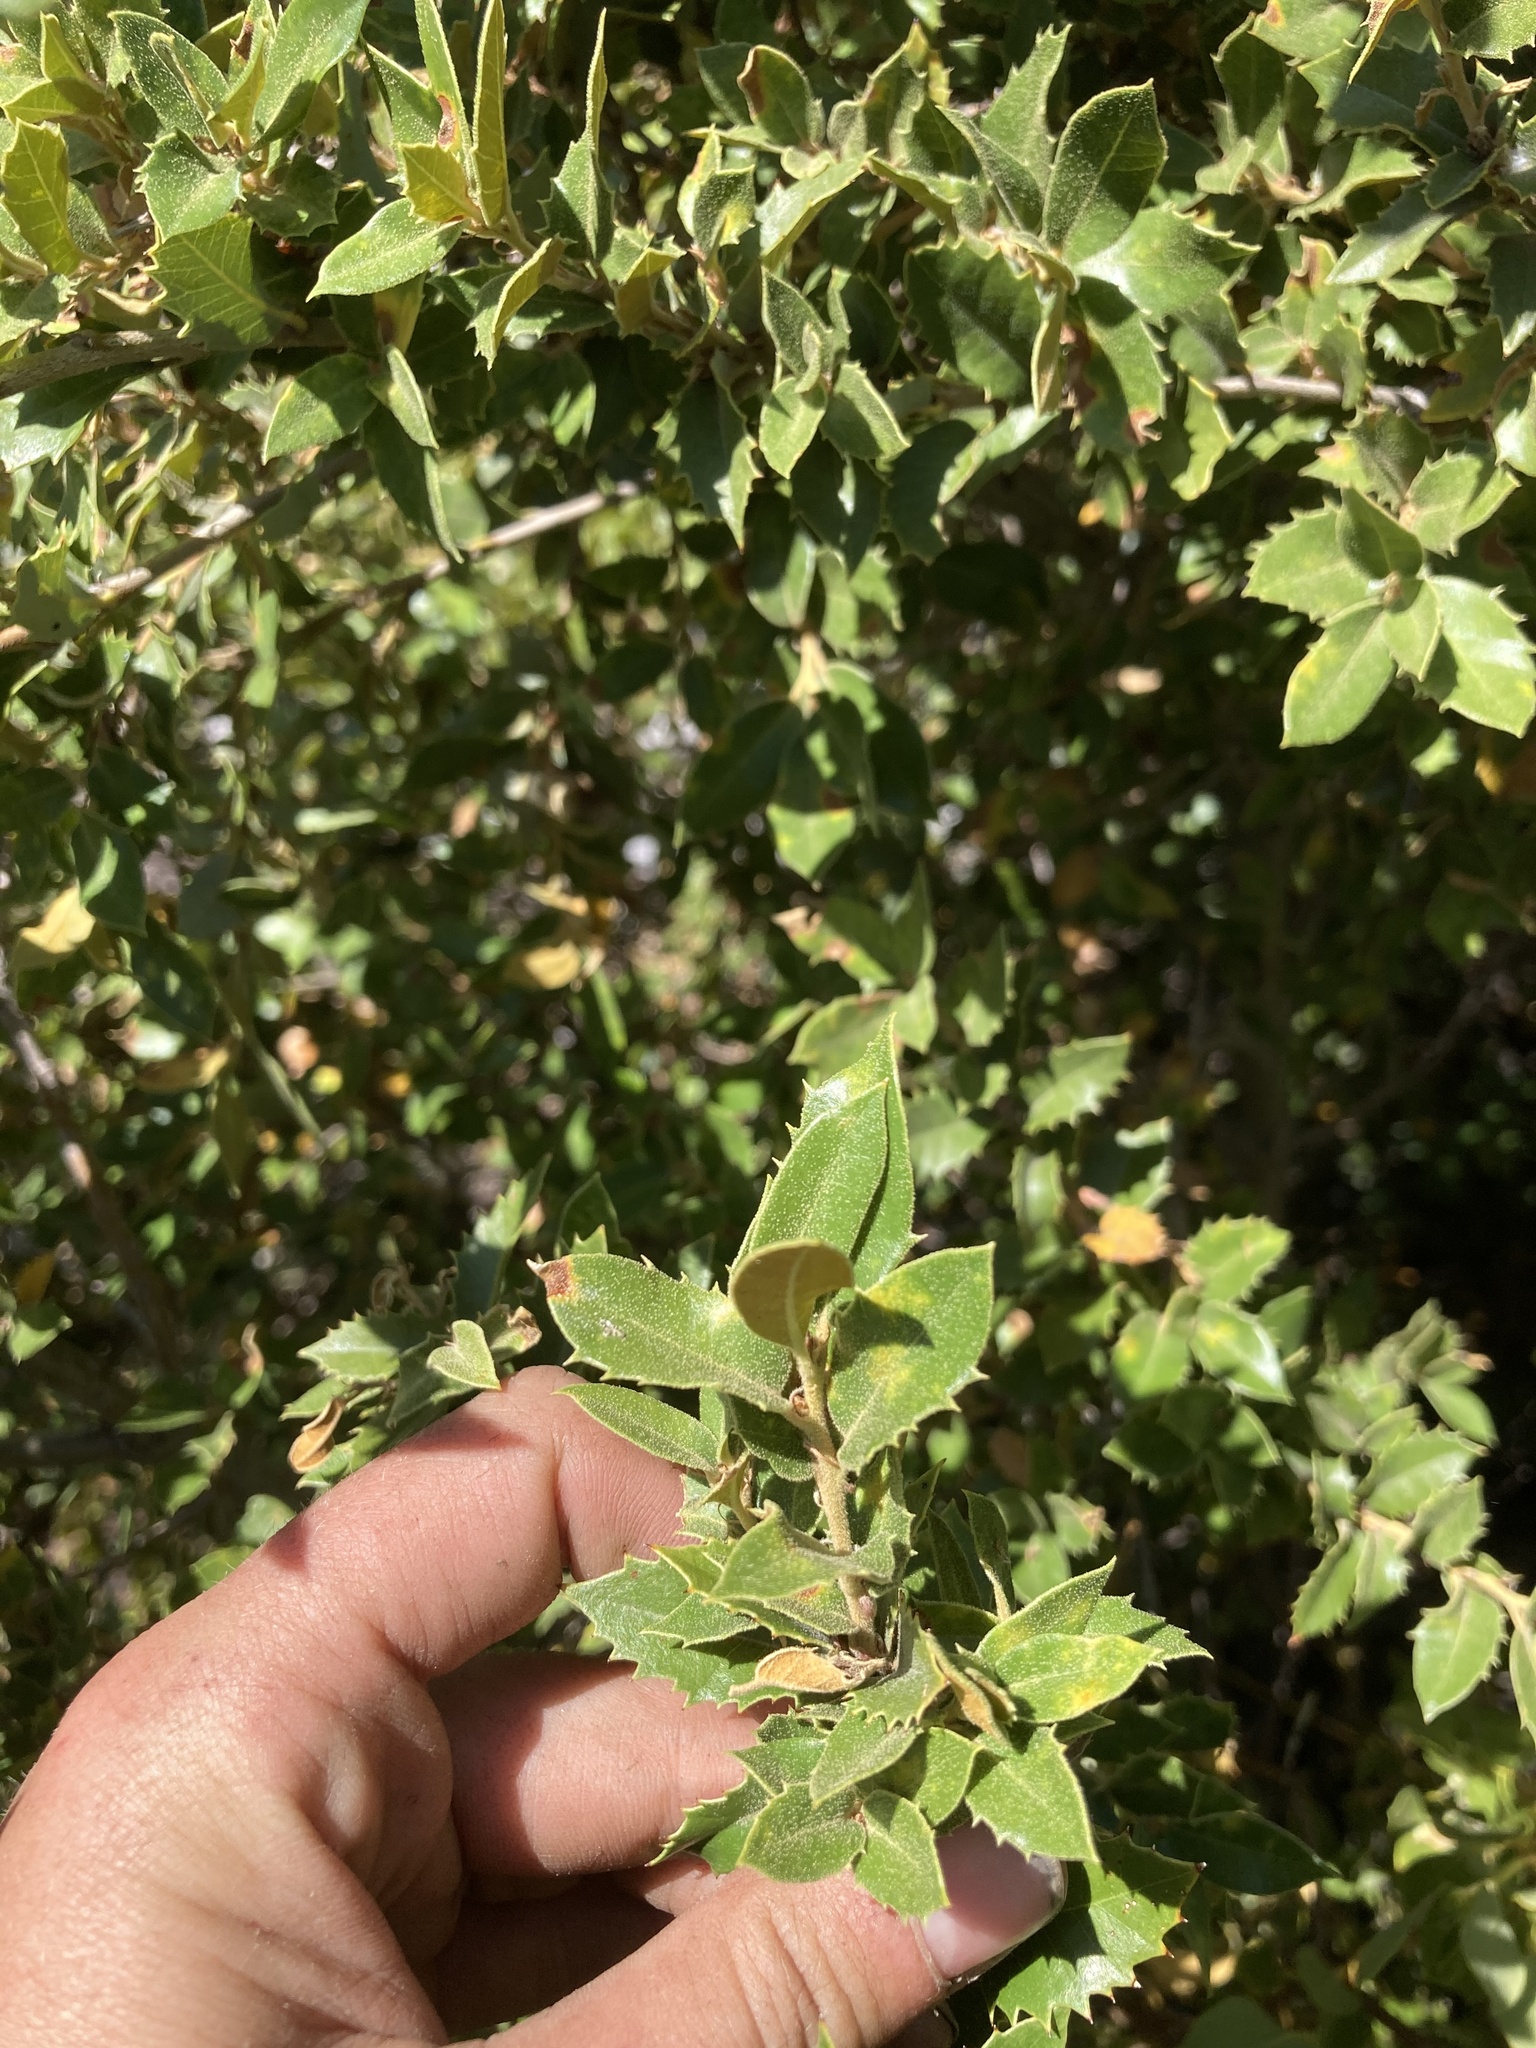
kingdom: Plantae
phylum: Tracheophyta
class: Magnoliopsida
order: Fagales
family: Fagaceae
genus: Quercus
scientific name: Quercus chrysolepis
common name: Canyon live oak
